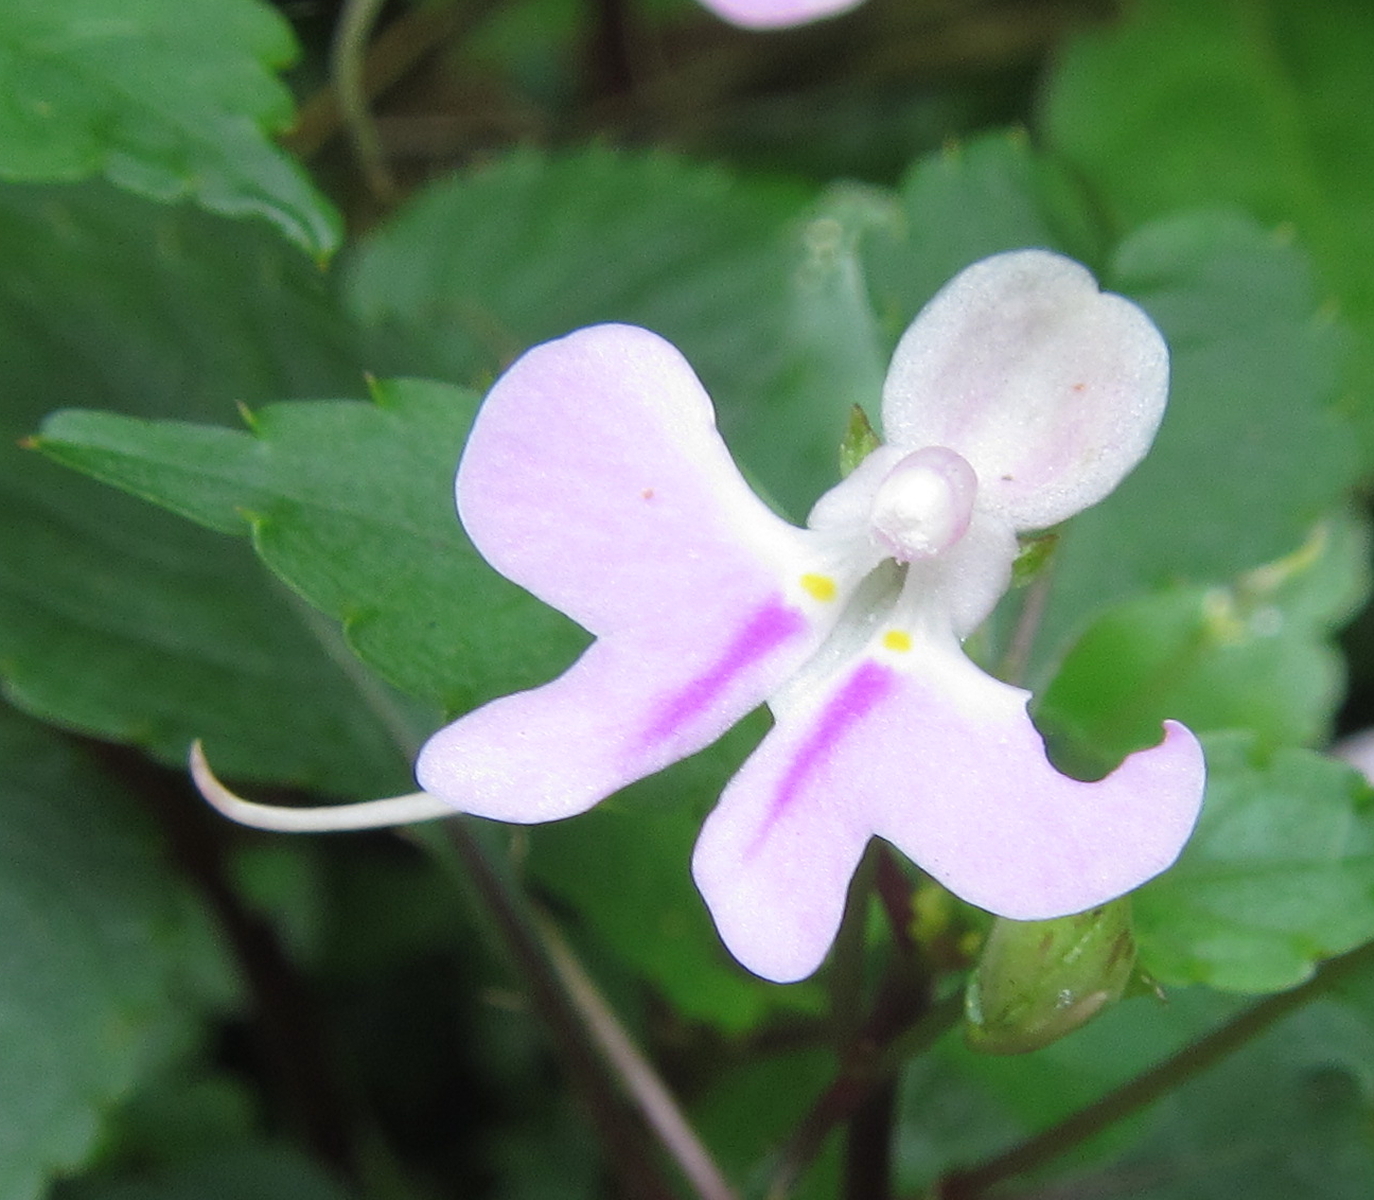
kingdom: Plantae
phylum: Tracheophyta
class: Magnoliopsida
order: Ericales
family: Balsaminaceae
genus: Impatiens
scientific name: Impatiens hochstetteri
